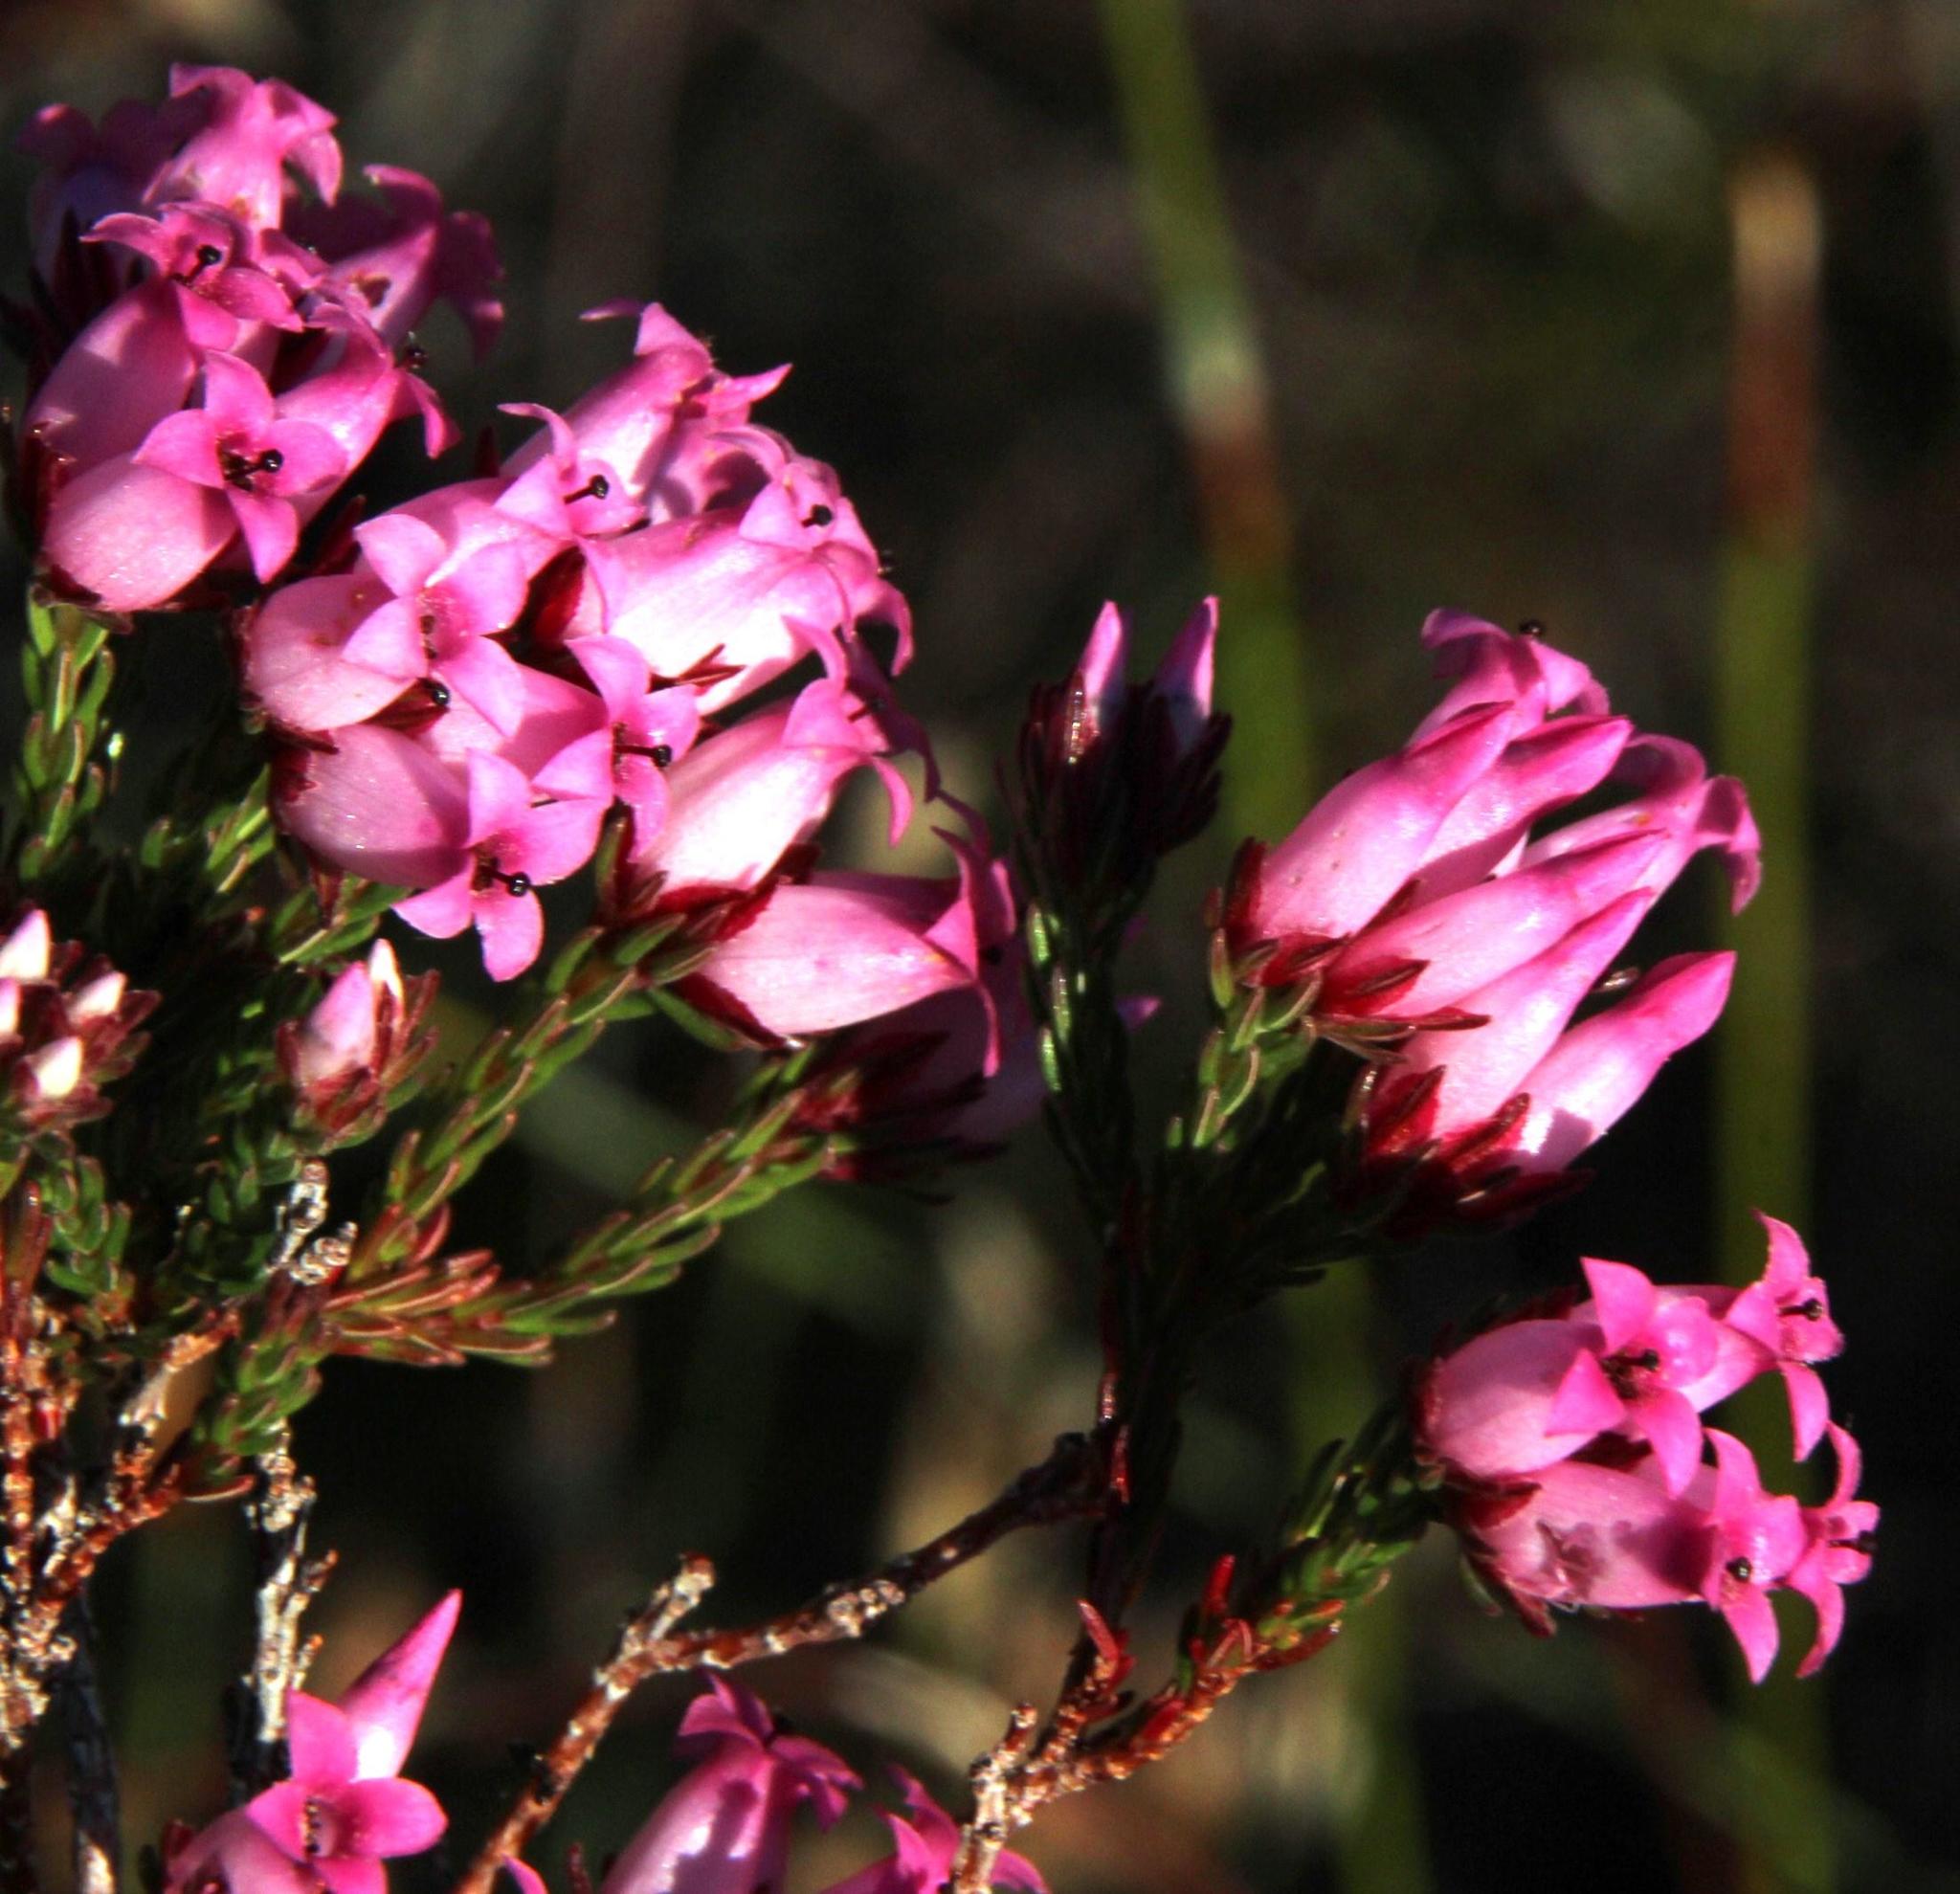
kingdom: Plantae
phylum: Tracheophyta
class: Magnoliopsida
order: Ericales
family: Ericaceae
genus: Erica
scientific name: Erica daphniflora
